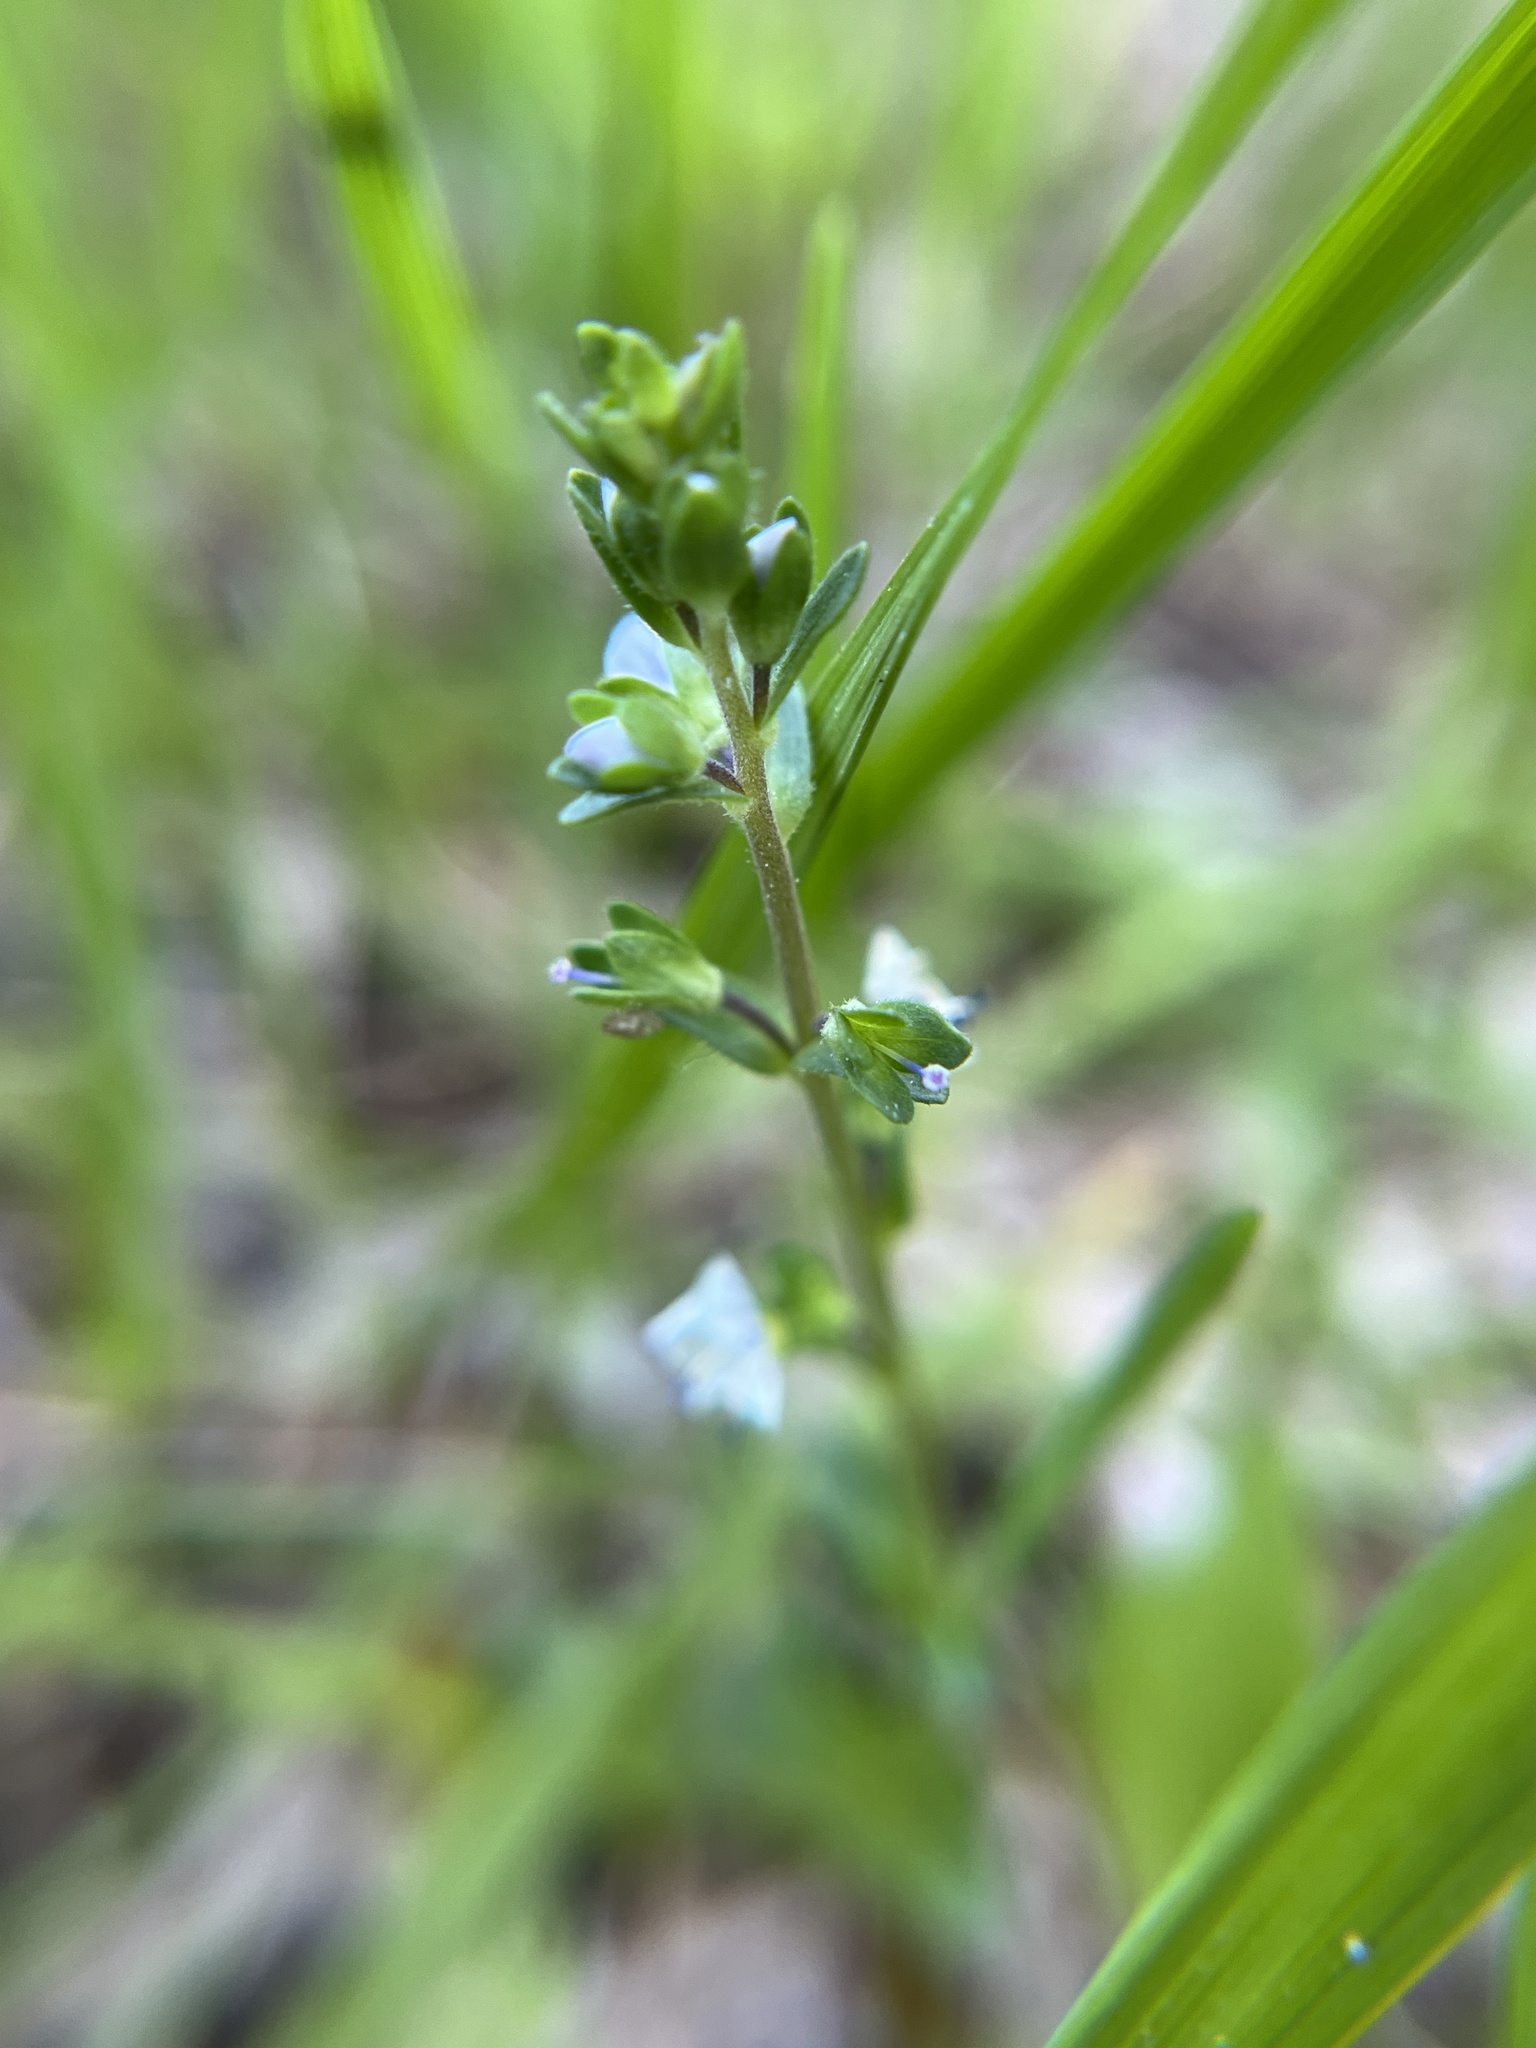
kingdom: Plantae
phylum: Tracheophyta
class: Magnoliopsida
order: Lamiales
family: Plantaginaceae
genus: Veronica
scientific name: Veronica serpyllifolia
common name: Thyme-leaved speedwell
